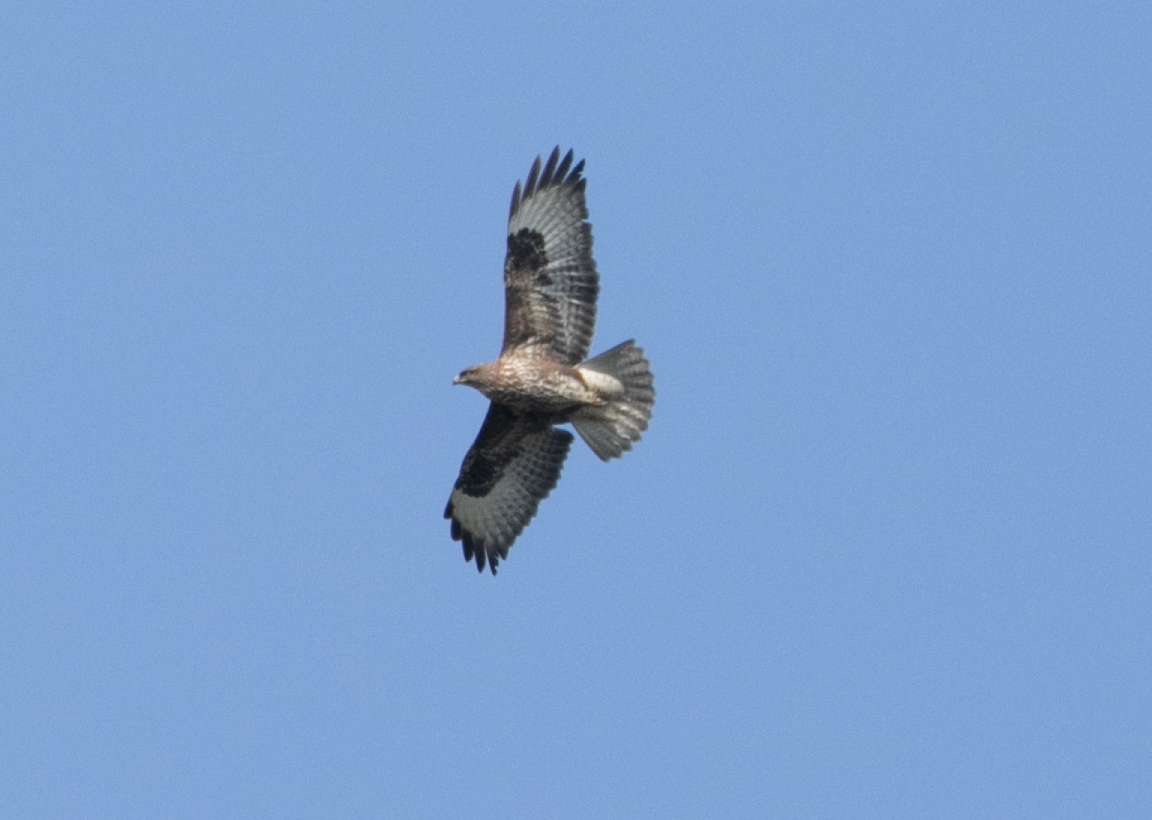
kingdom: Animalia
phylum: Chordata
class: Aves
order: Accipitriformes
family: Accipitridae
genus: Buteo
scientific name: Buteo buteo
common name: Common buzzard
